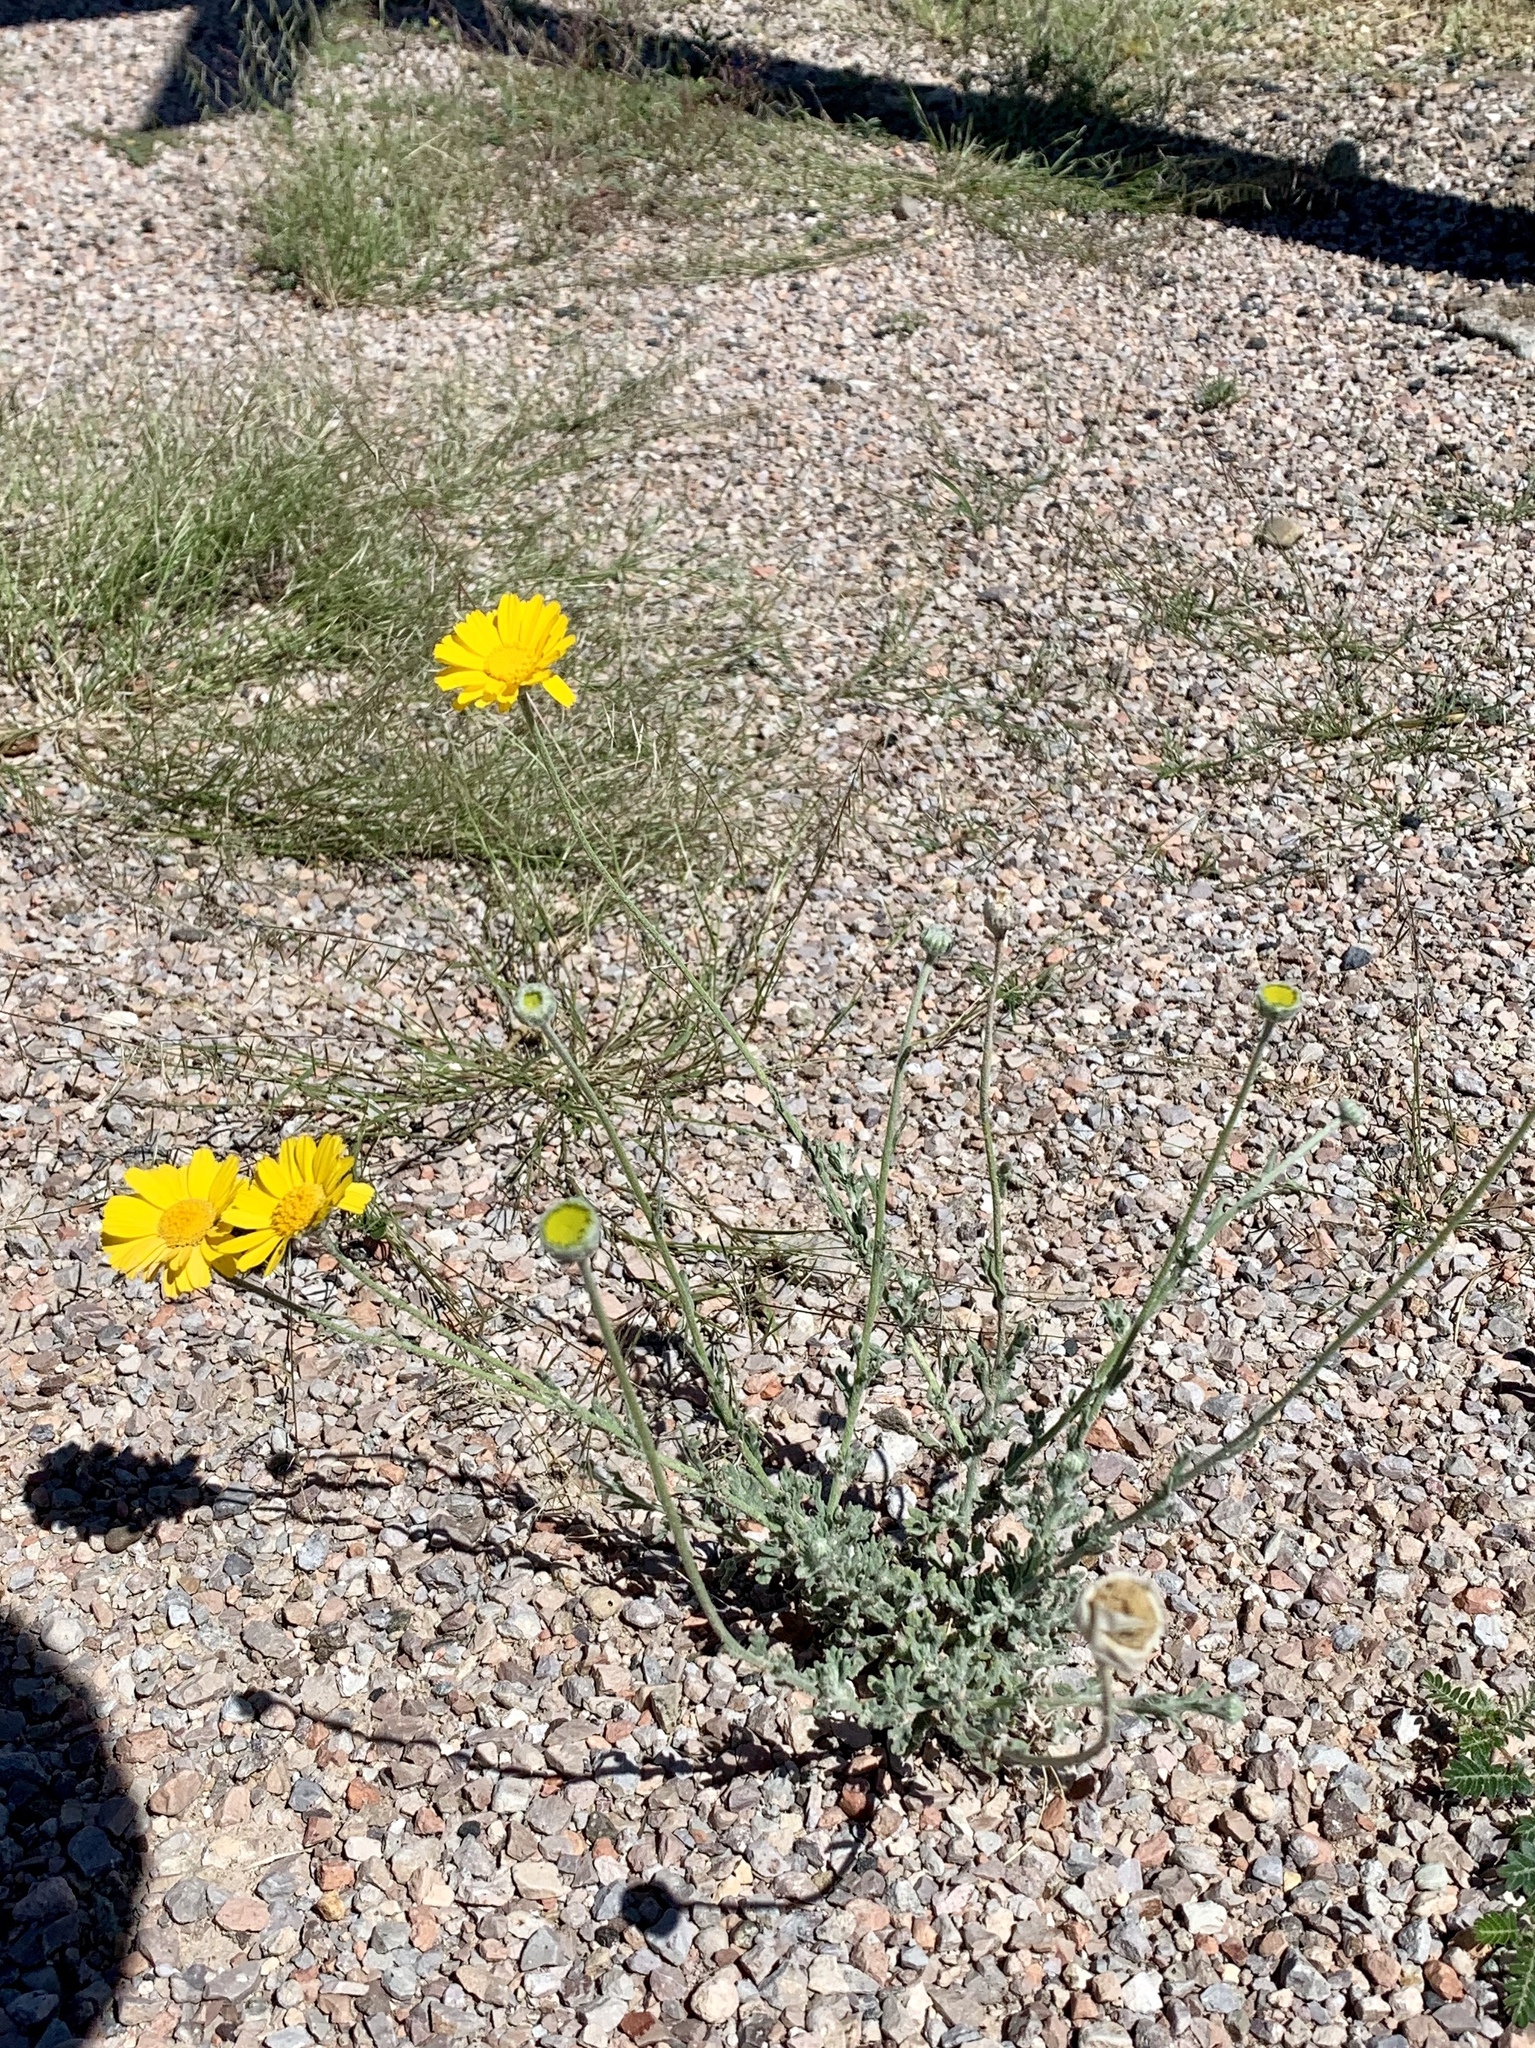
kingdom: Plantae
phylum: Tracheophyta
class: Magnoliopsida
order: Asterales
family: Asteraceae
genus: Baileya
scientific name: Baileya multiradiata
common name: Desert-marigold
